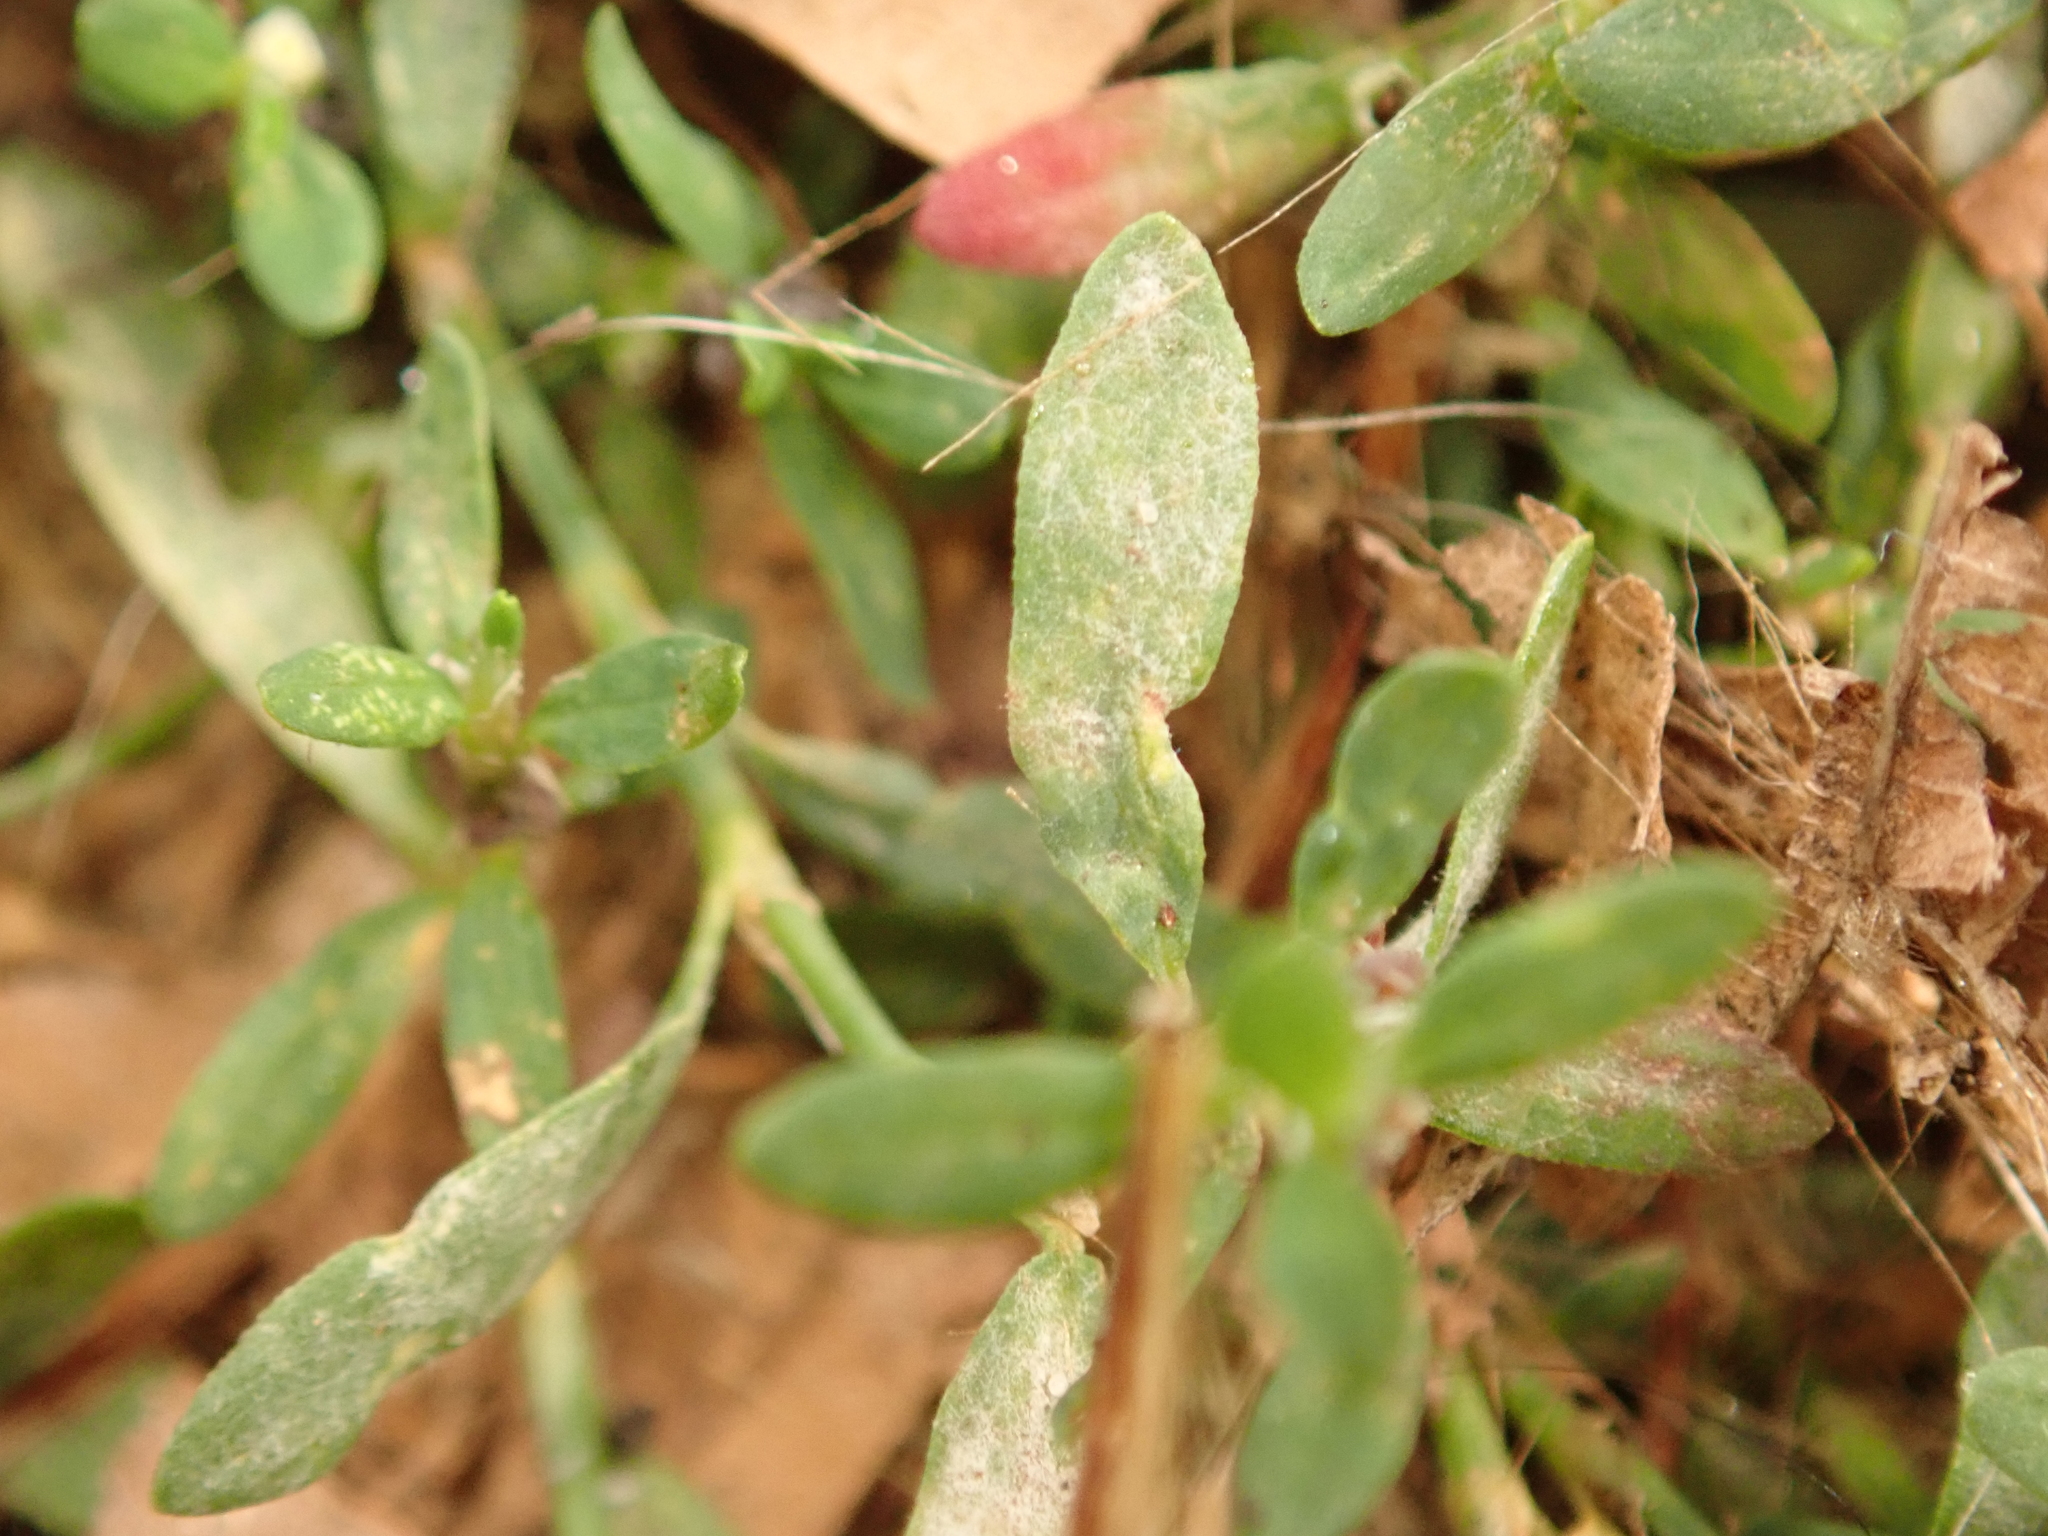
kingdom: Fungi
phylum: Ascomycota
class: Leotiomycetes
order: Helotiales
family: Erysiphaceae
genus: Erysiphe
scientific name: Erysiphe polygoni
